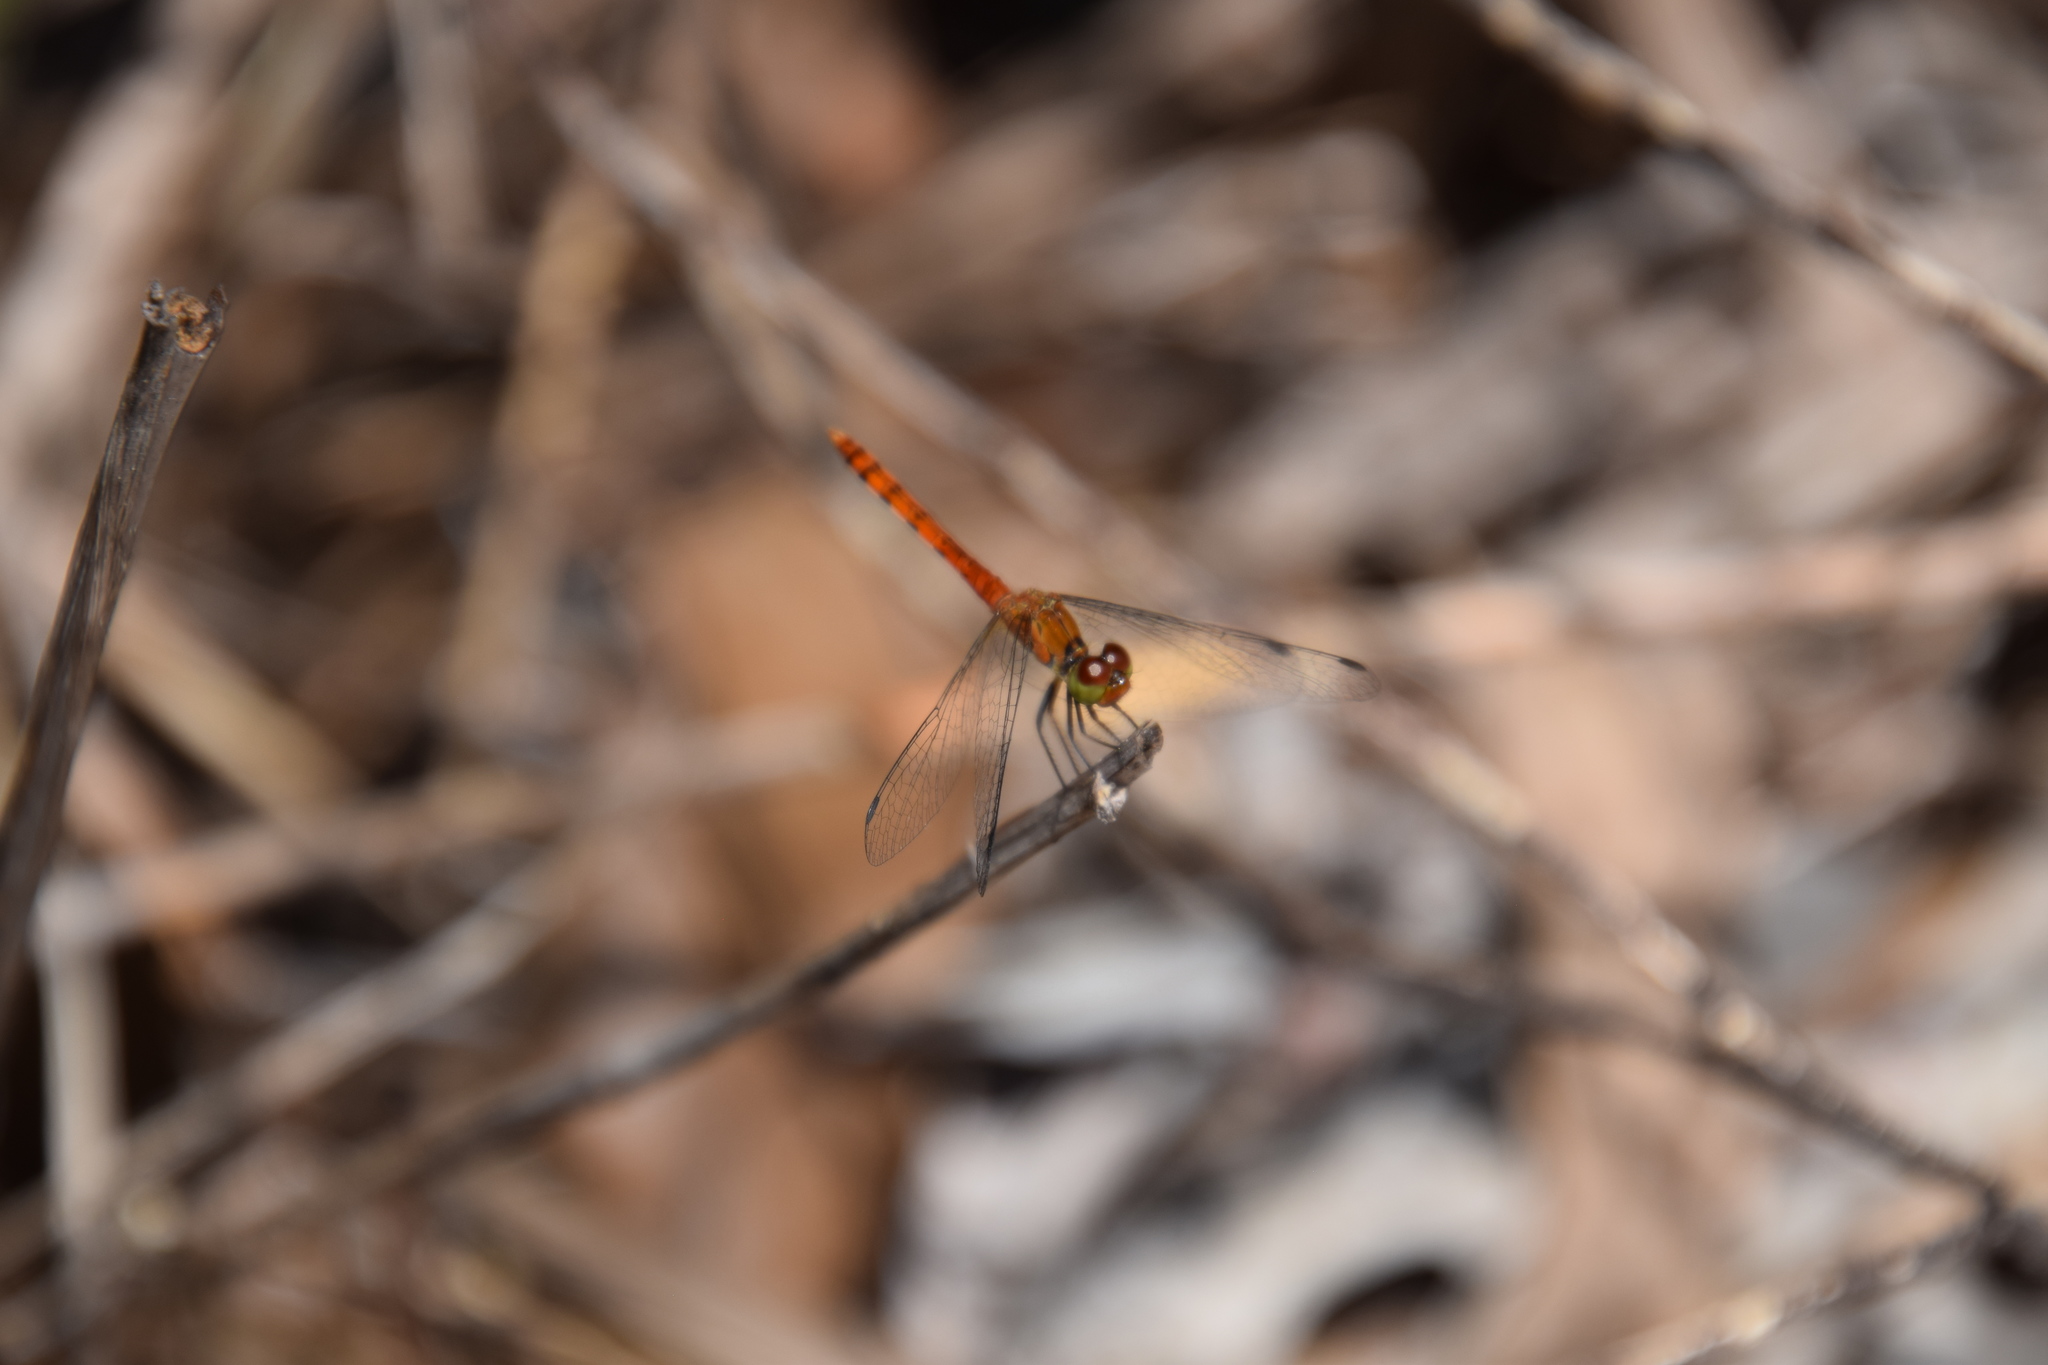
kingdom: Animalia
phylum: Arthropoda
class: Insecta
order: Odonata
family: Libellulidae
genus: Nannodiplax
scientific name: Nannodiplax rubra
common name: Pygmy percher
